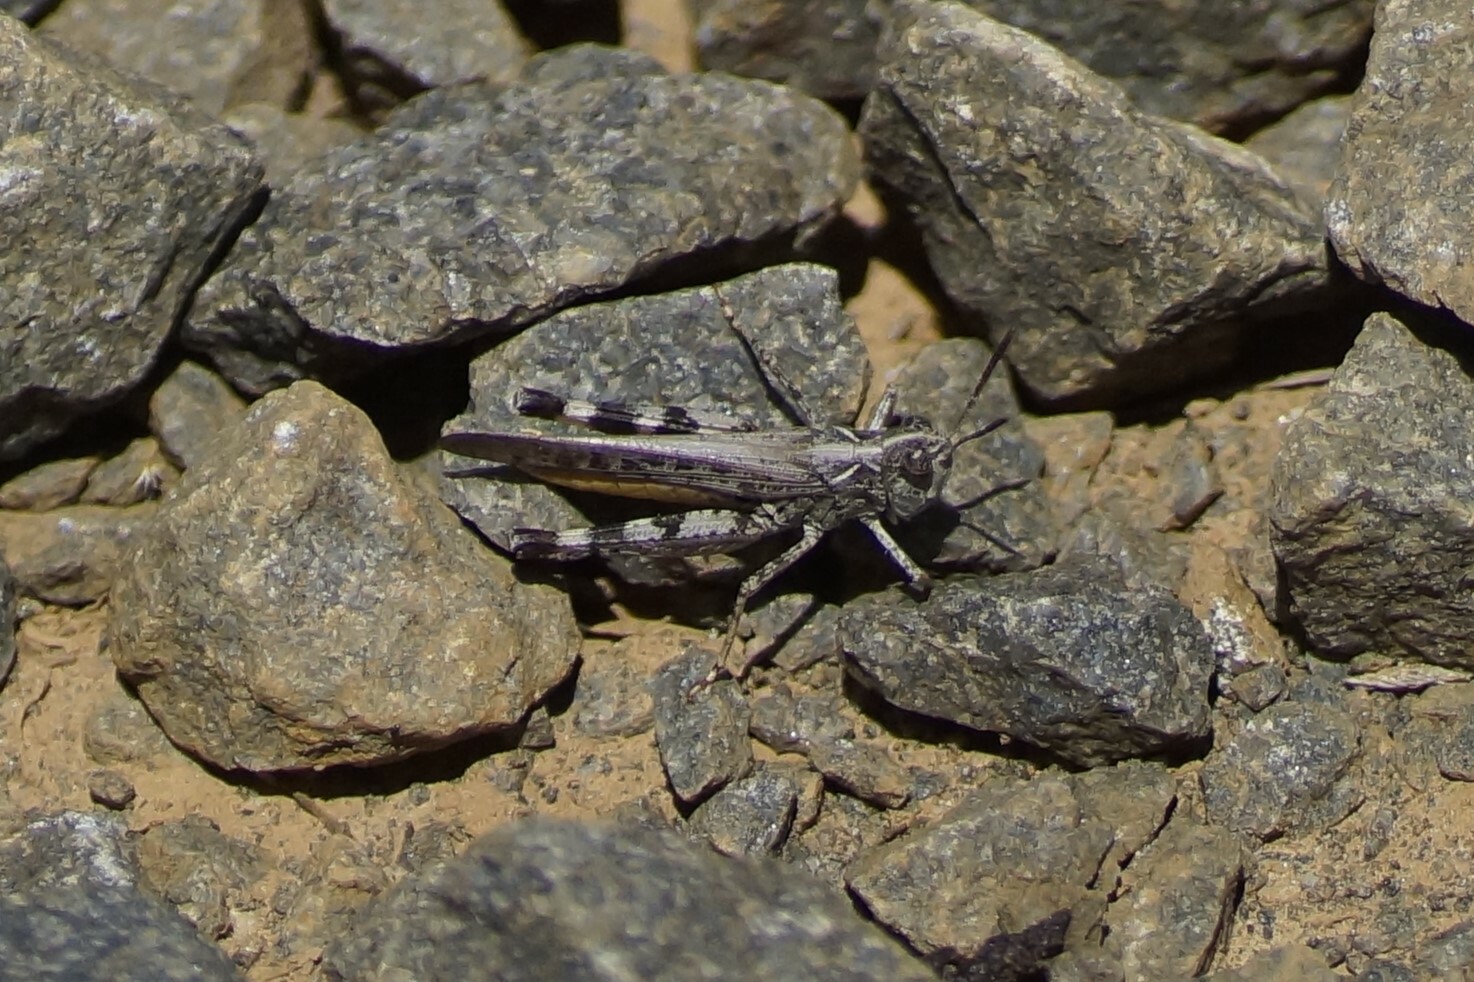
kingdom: Animalia
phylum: Arthropoda
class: Insecta
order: Orthoptera
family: Acrididae
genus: Austroicetes
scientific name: Austroicetes vulgaris
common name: Southeastern austroicetes
